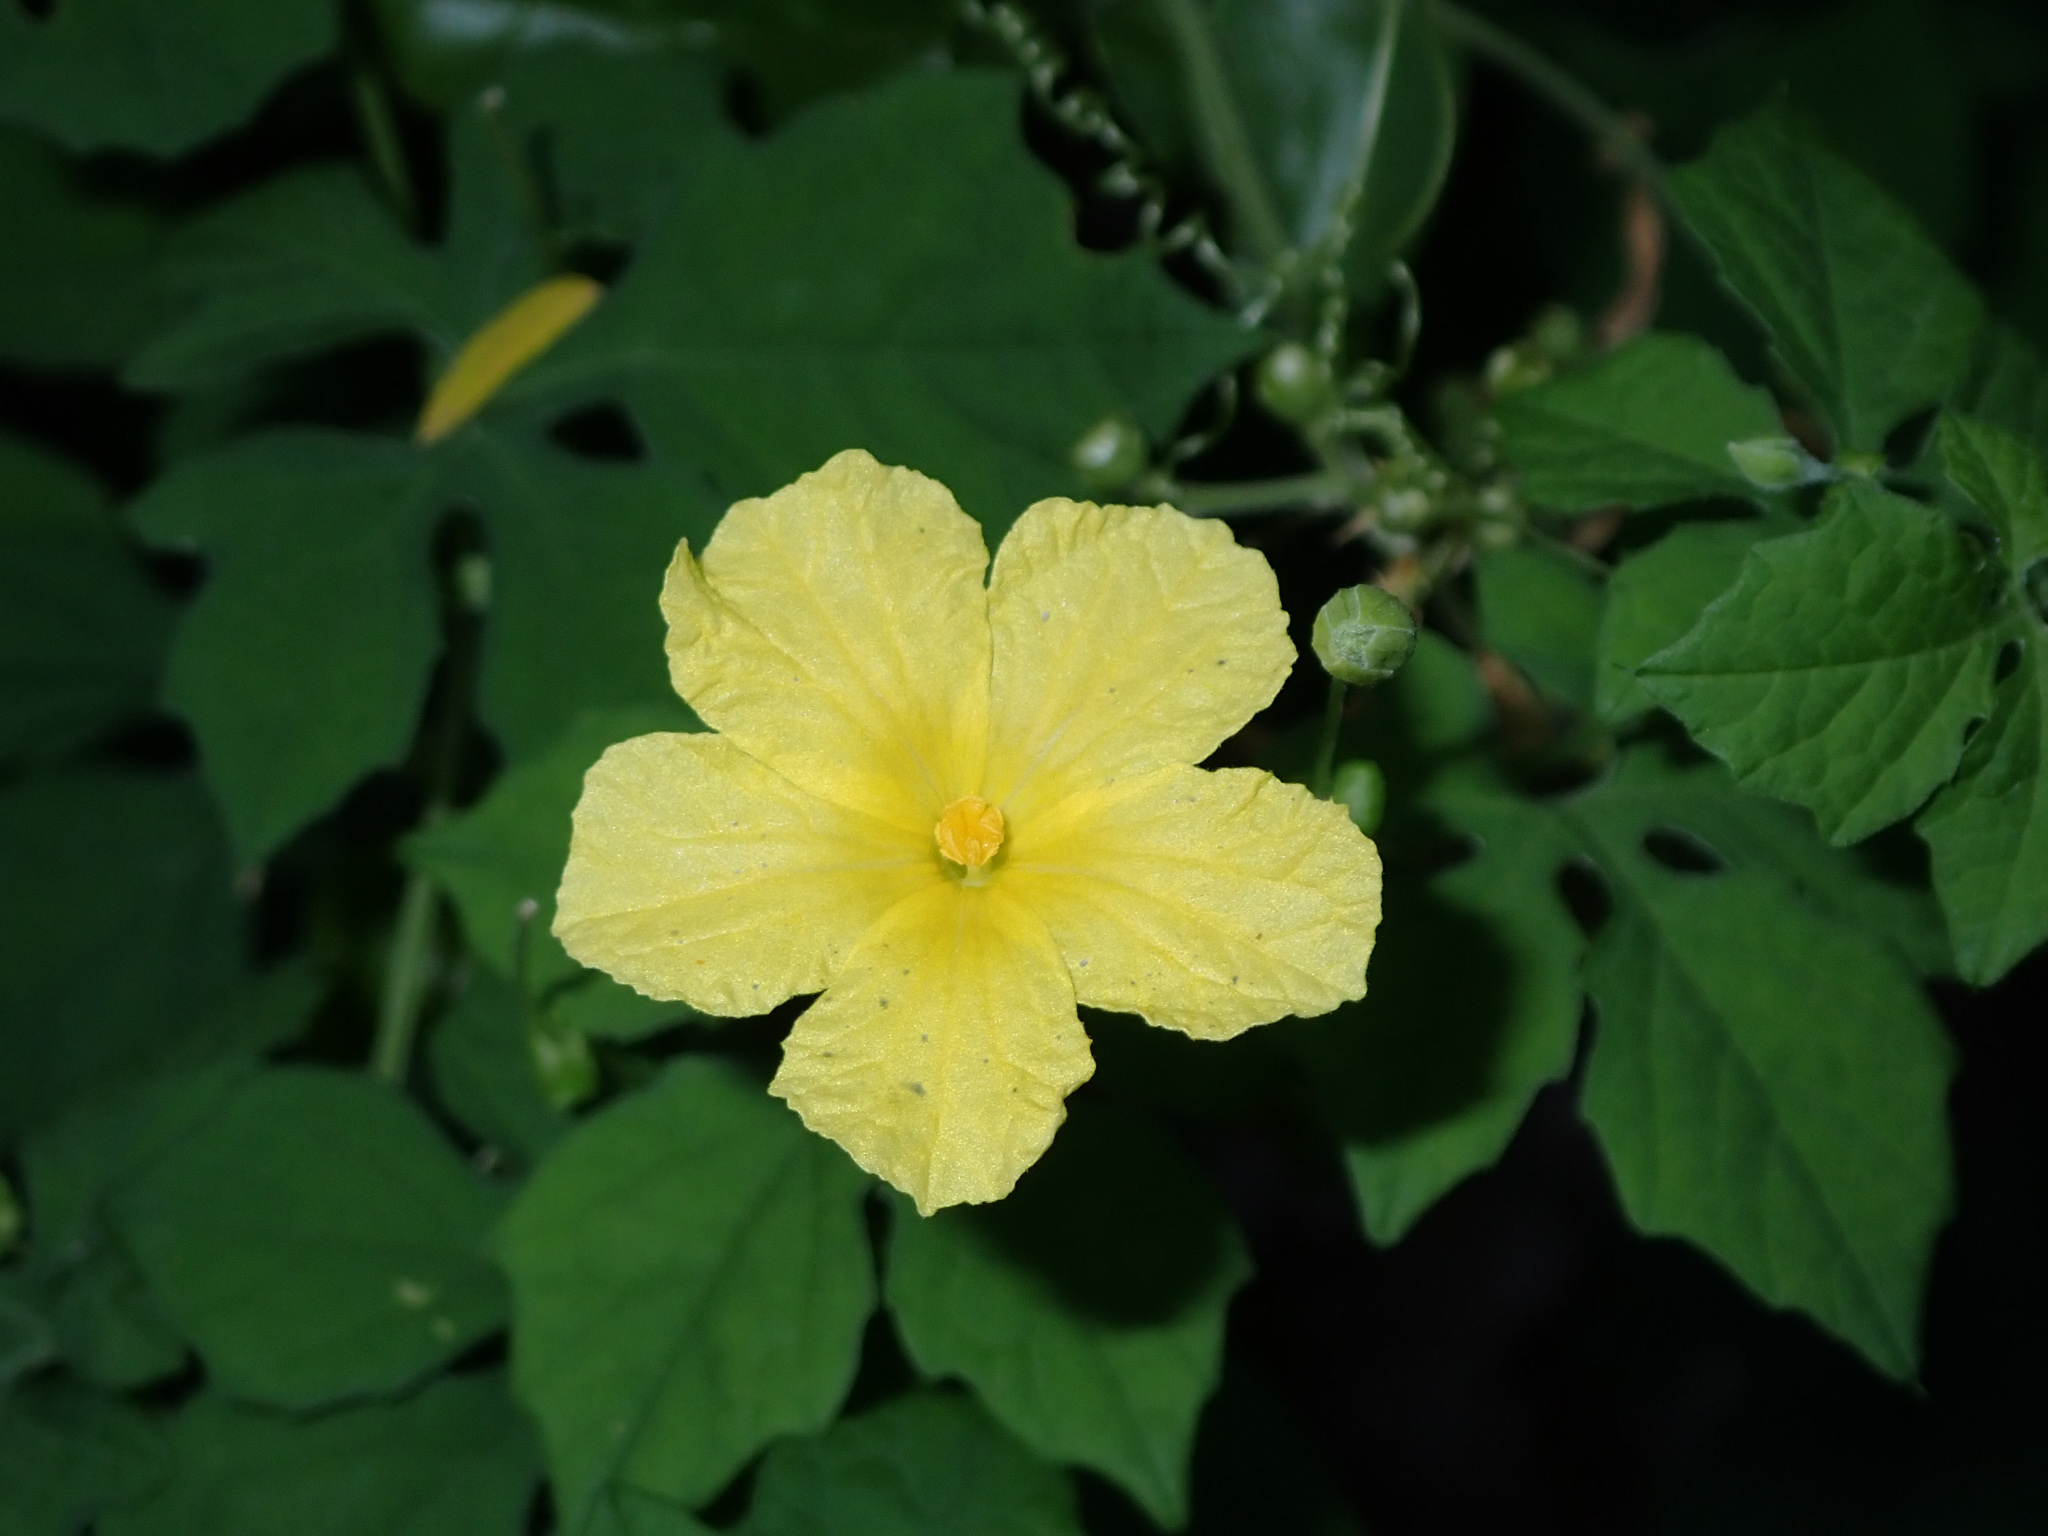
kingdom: Plantae
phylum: Tracheophyta
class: Magnoliopsida
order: Cucurbitales
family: Cucurbitaceae
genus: Momordica
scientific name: Momordica charantia
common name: Balsampear
